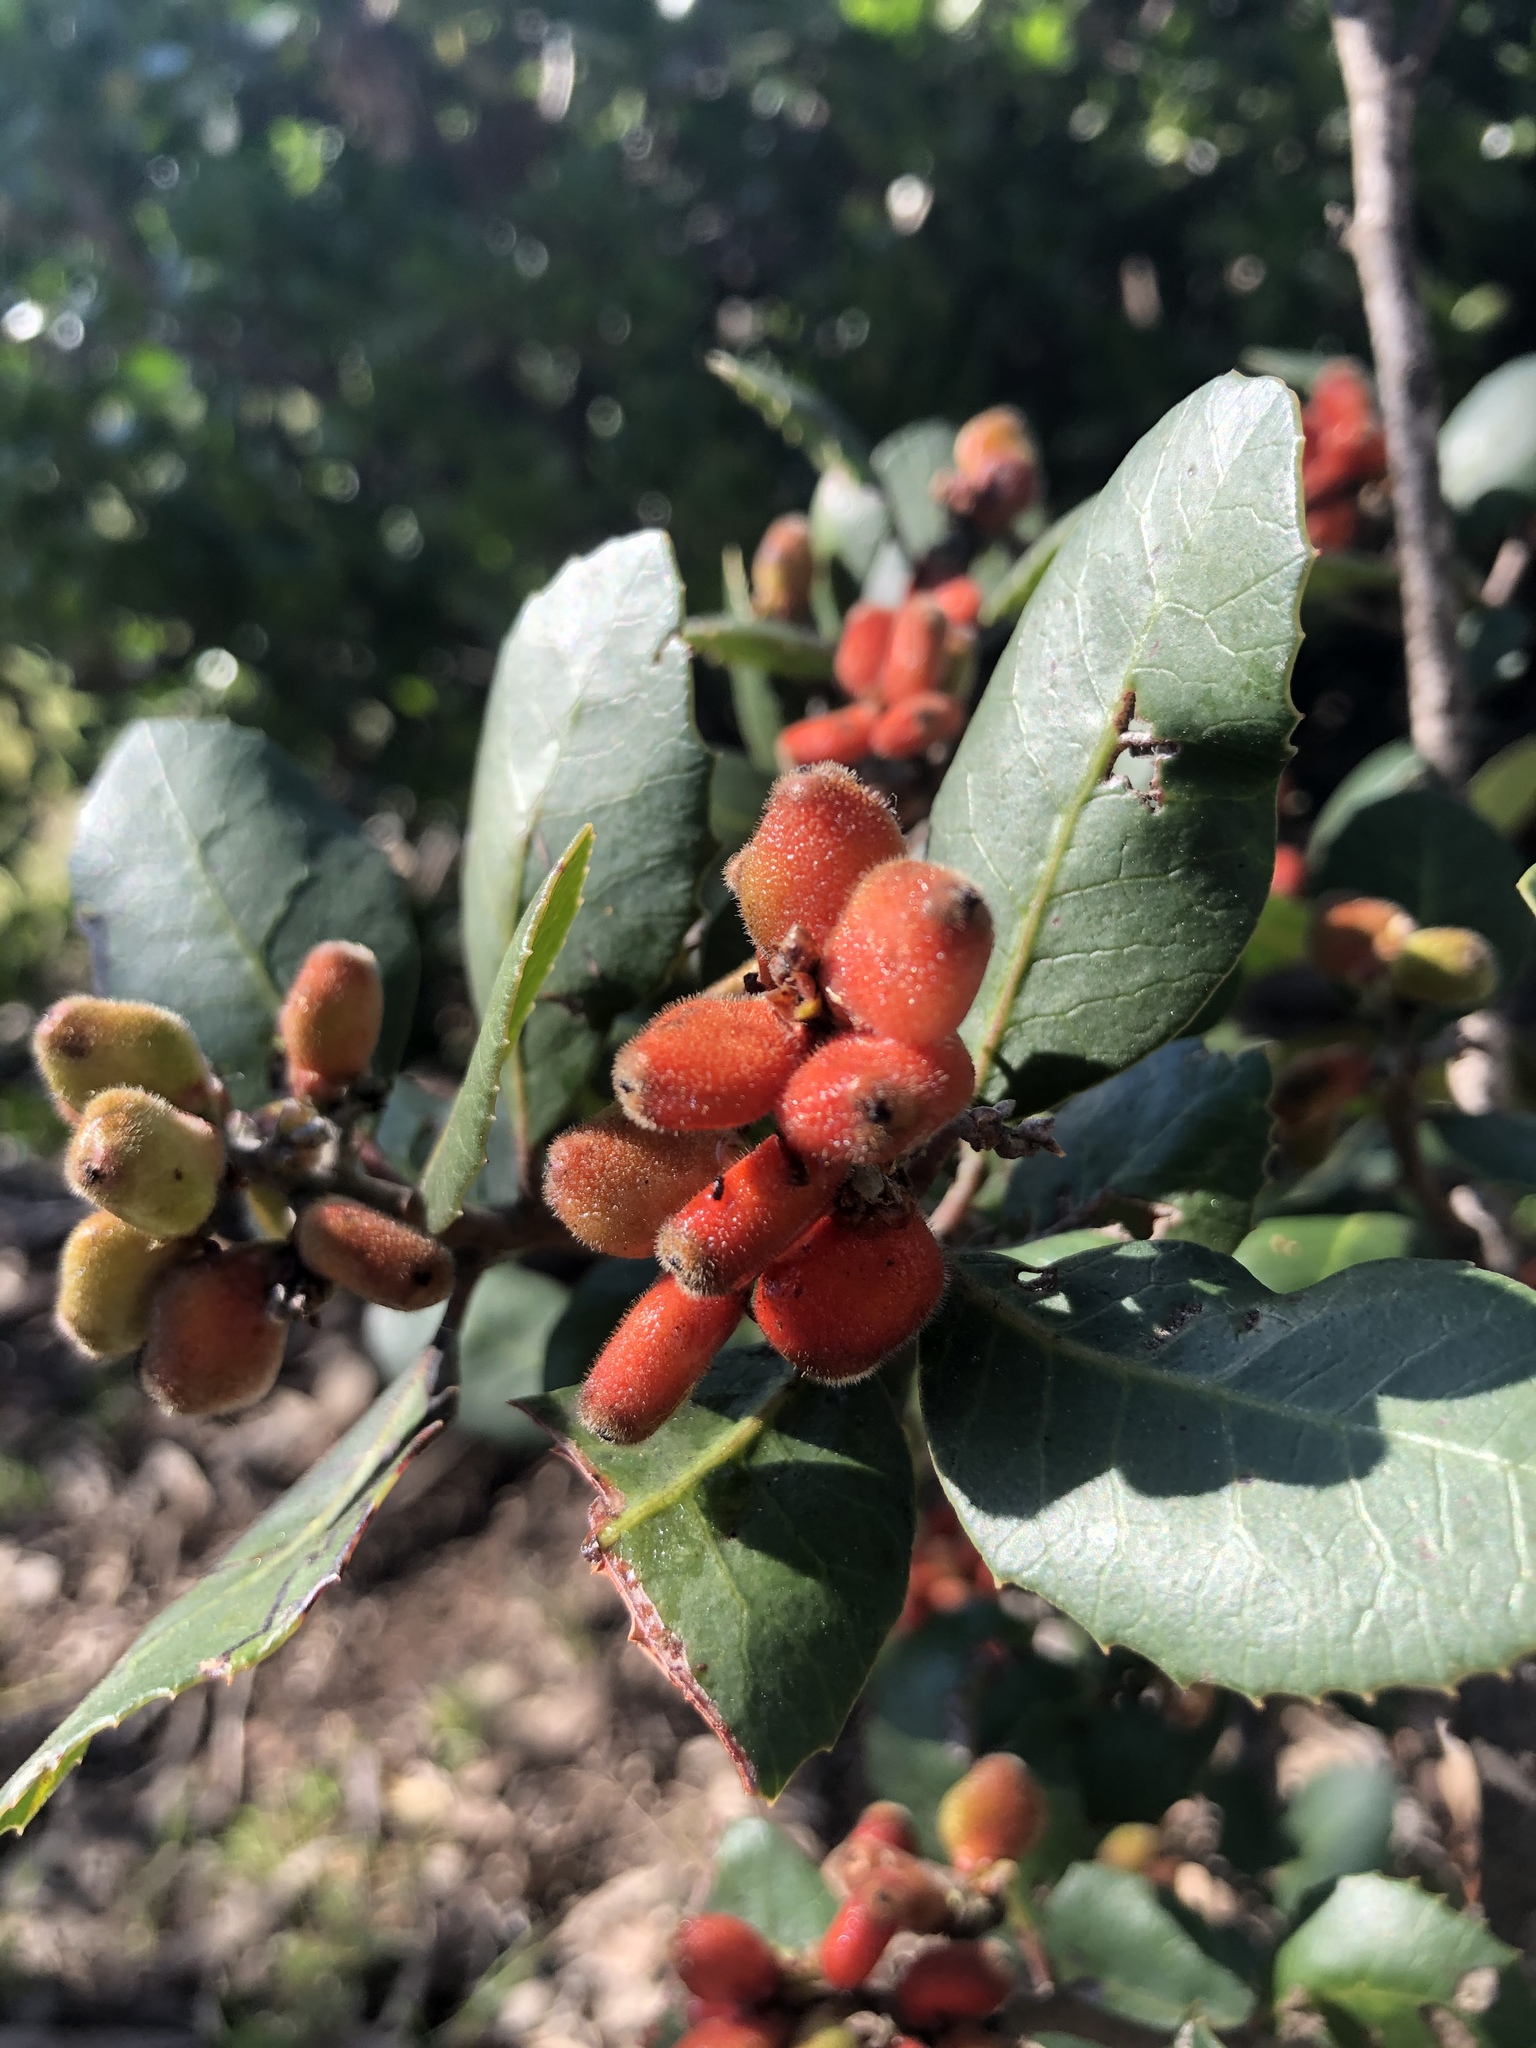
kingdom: Plantae
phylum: Tracheophyta
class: Magnoliopsida
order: Sapindales
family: Anacardiaceae
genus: Rhus
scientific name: Rhus integrifolia
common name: Lemonade sumac
